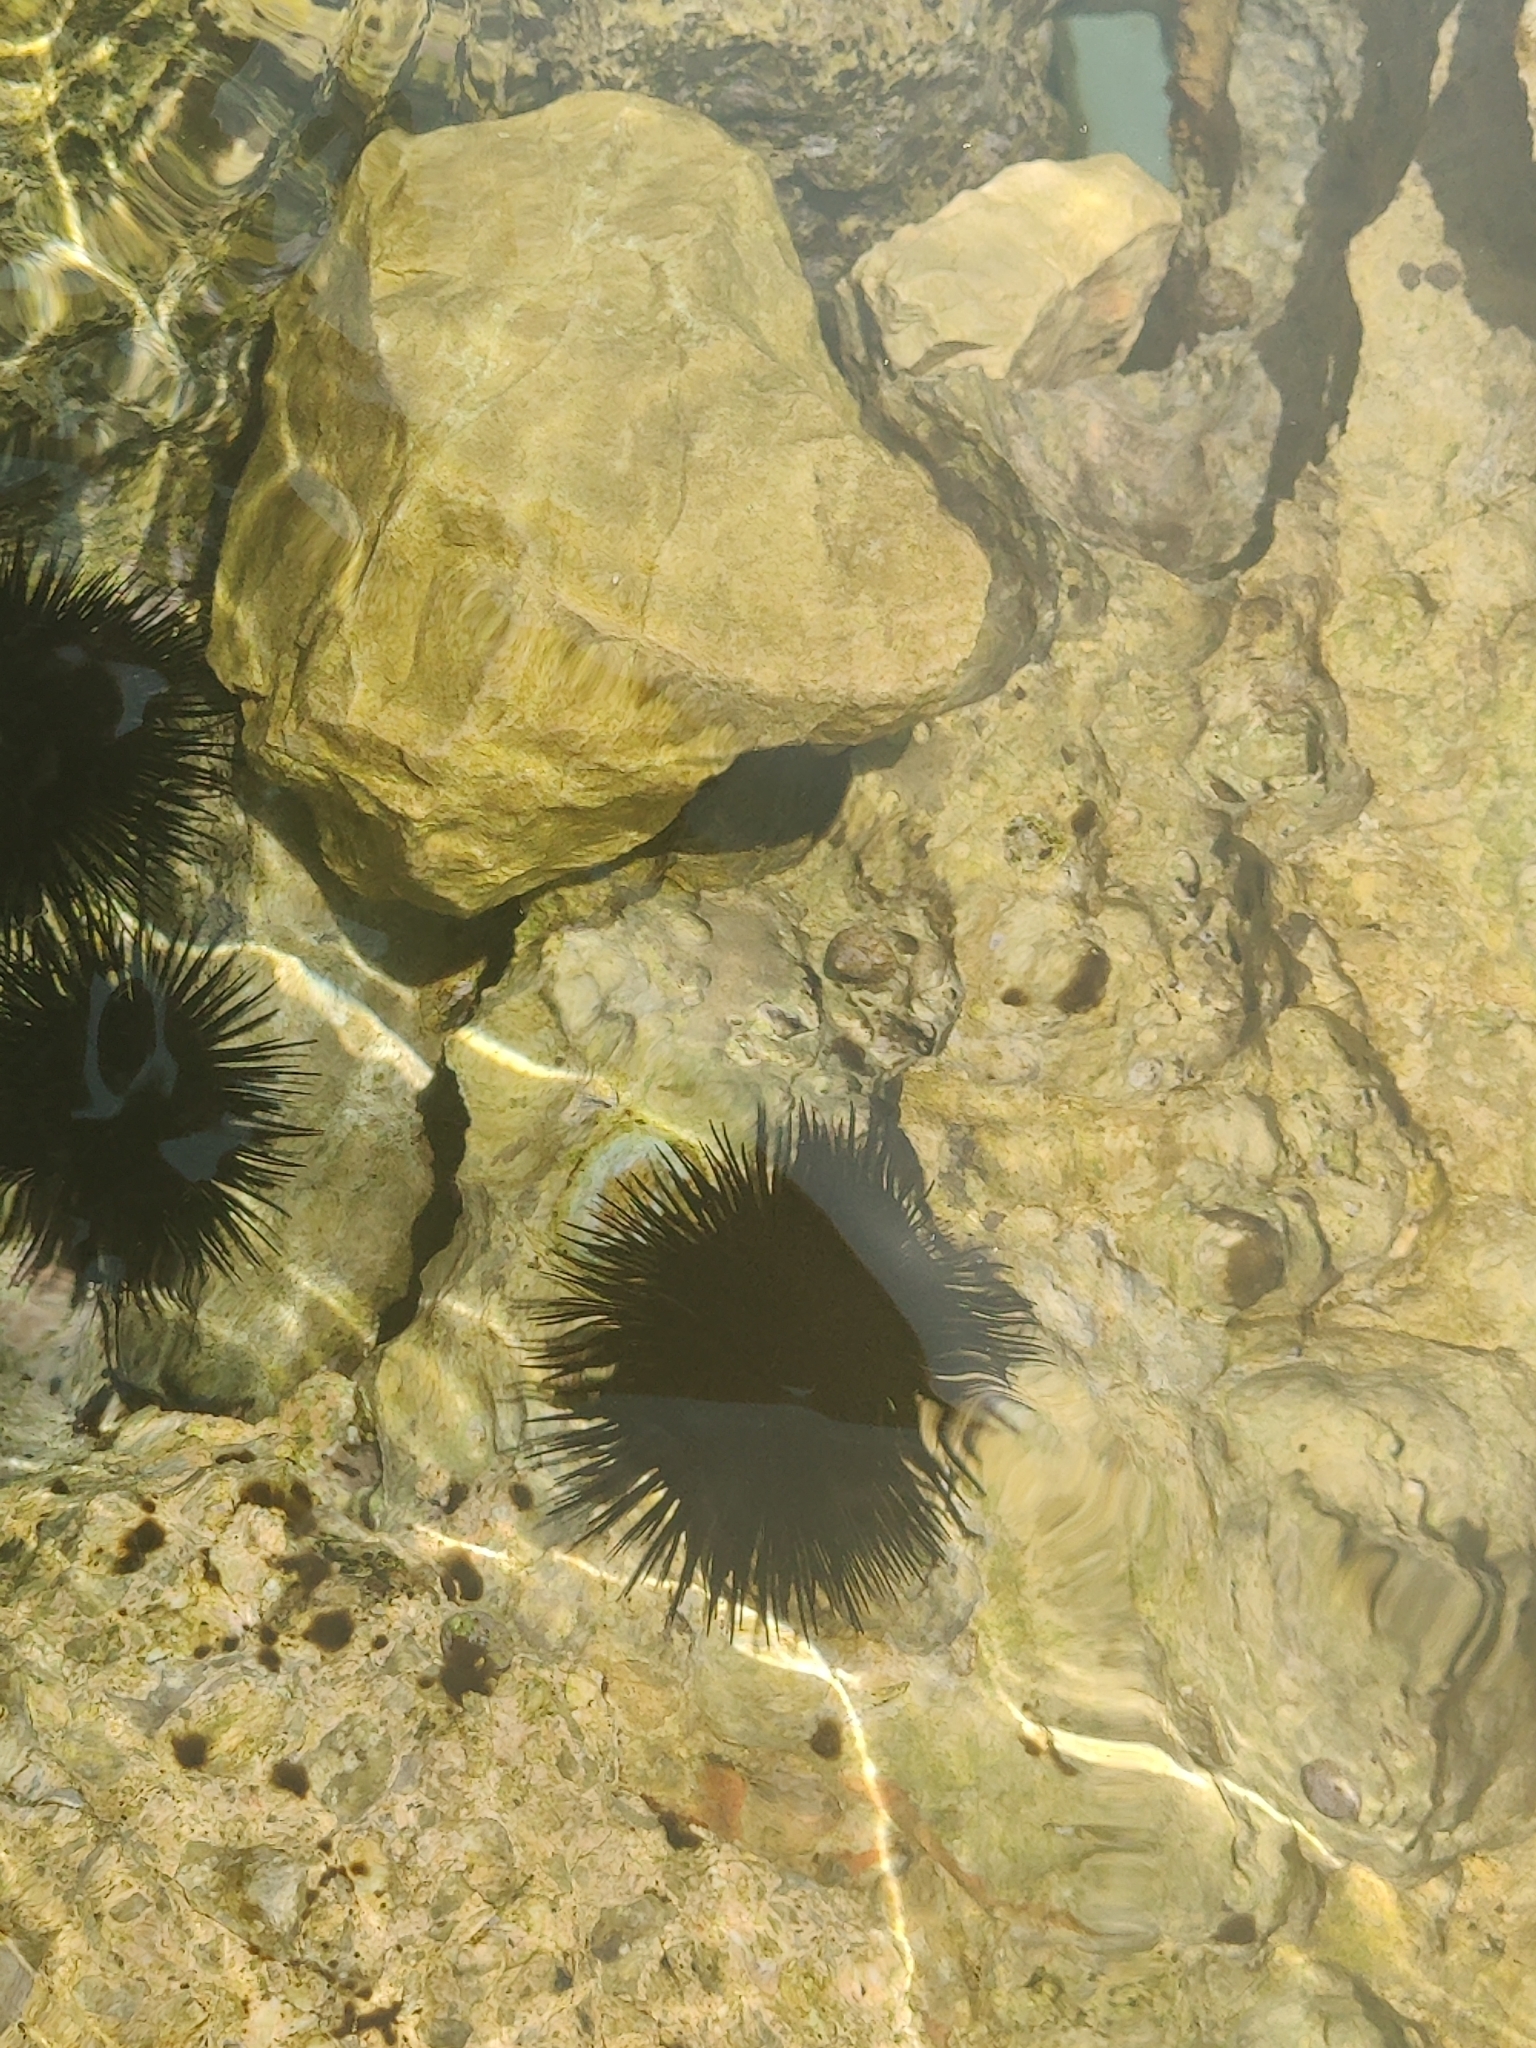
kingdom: Animalia
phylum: Echinodermata
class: Echinoidea
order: Arbacioida
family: Arbaciidae
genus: Arbacia
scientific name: Arbacia lixula
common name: Black sea urchin
